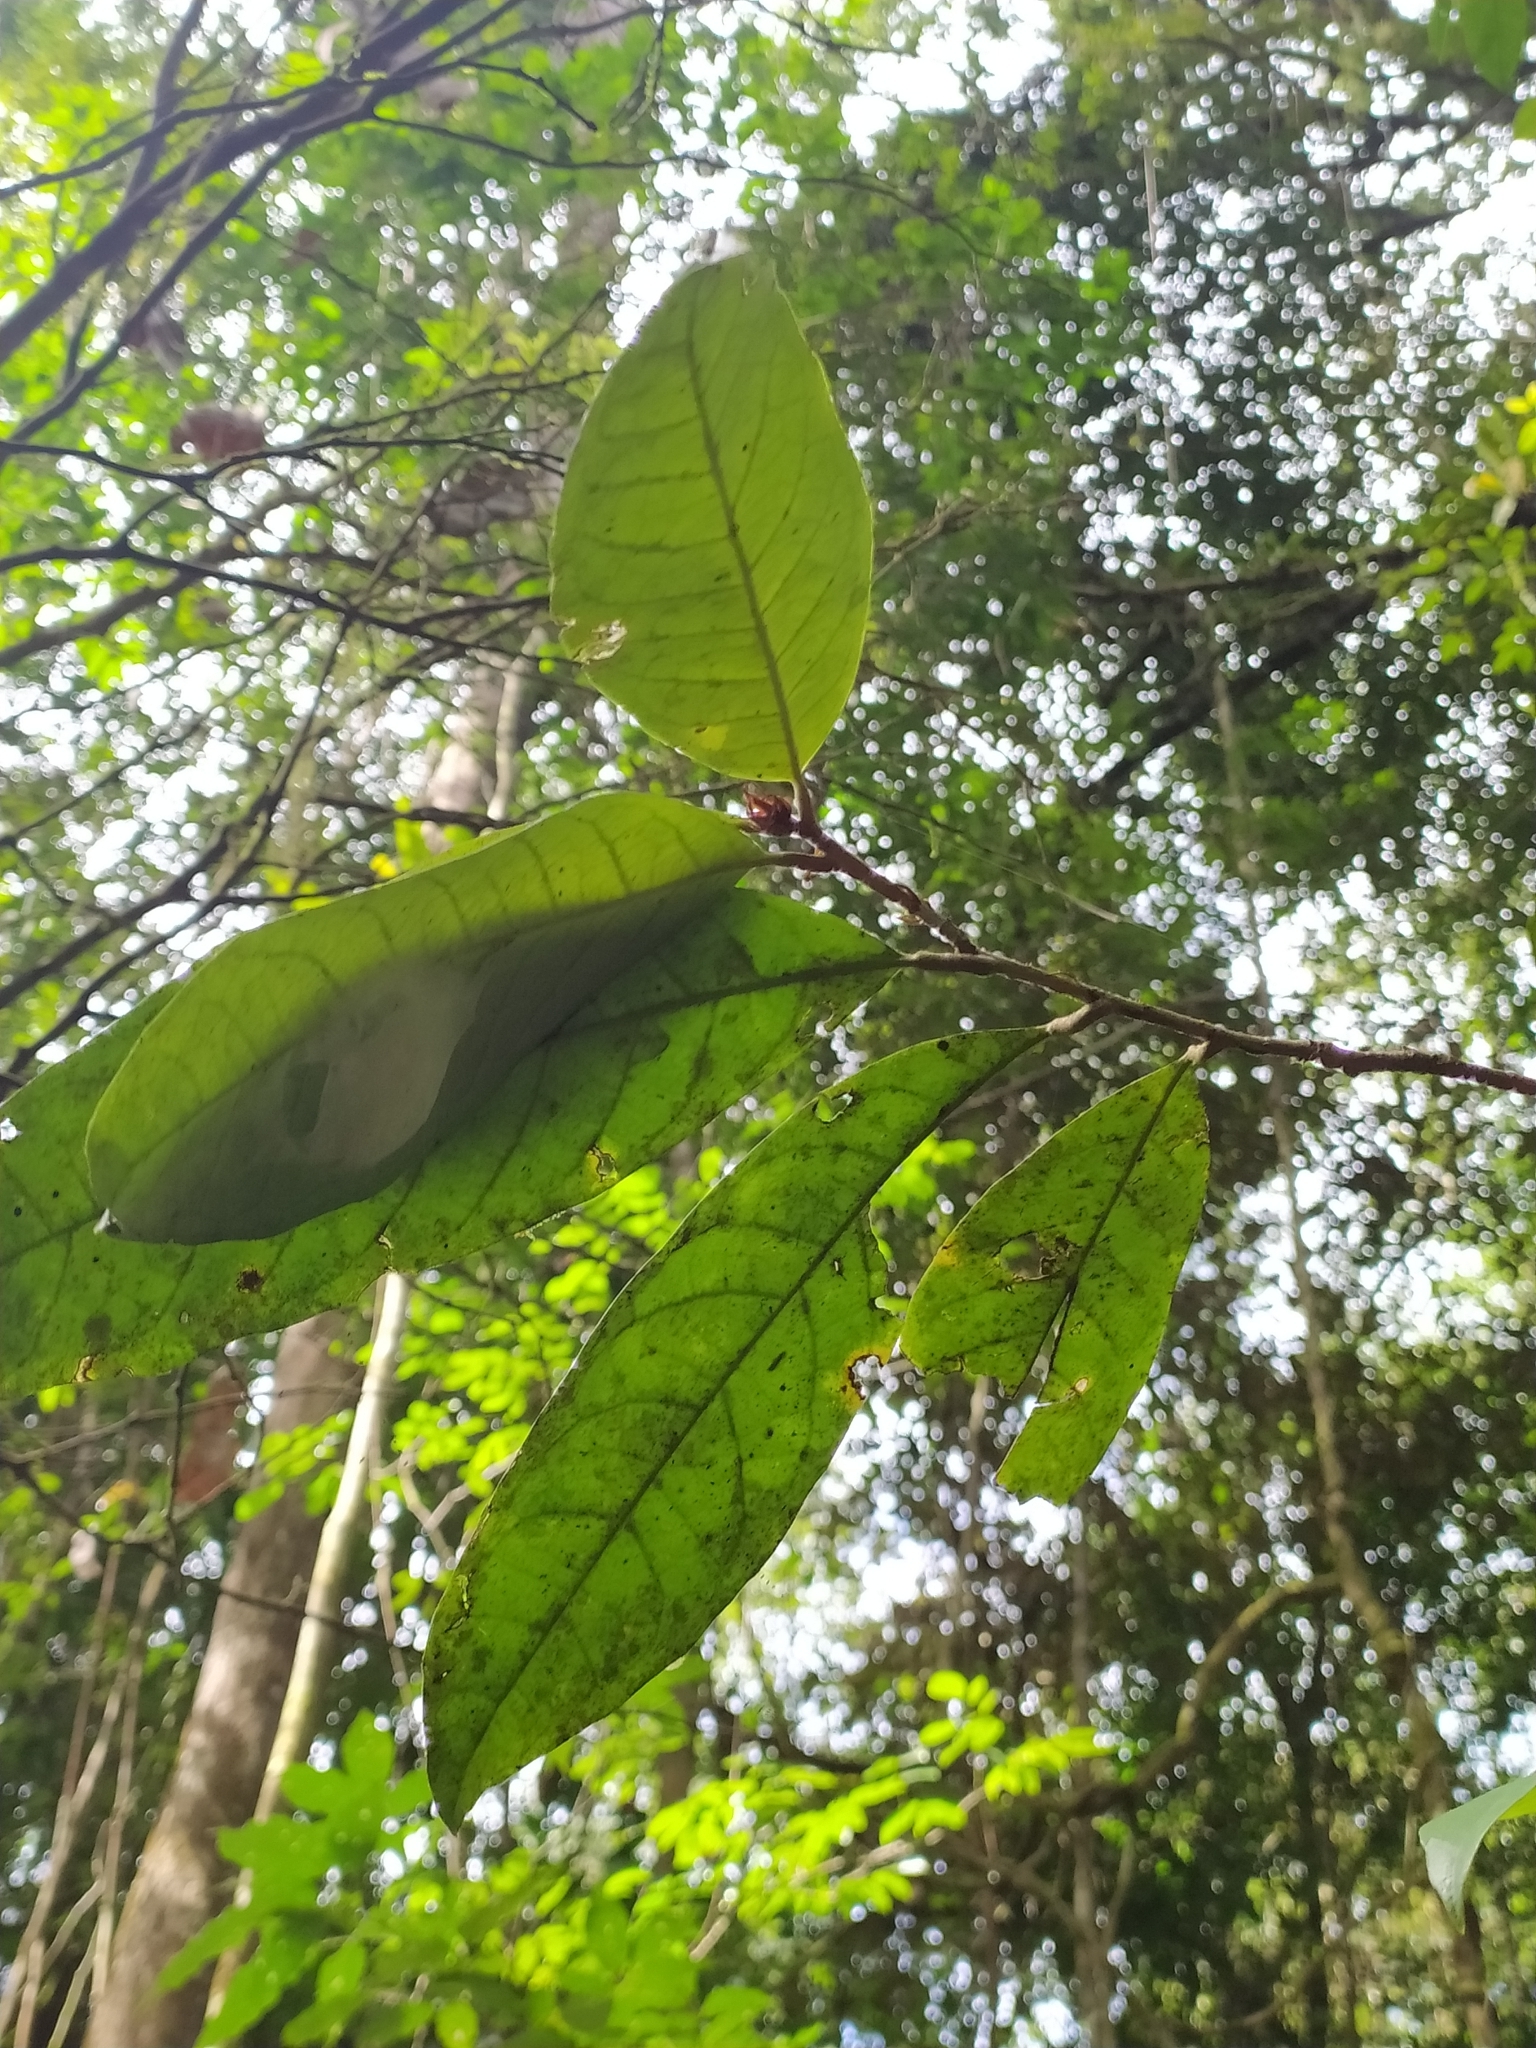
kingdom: Plantae
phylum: Tracheophyta
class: Magnoliopsida
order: Malpighiales
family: Violaceae
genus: Paypayrola
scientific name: Paypayrola guianensis
